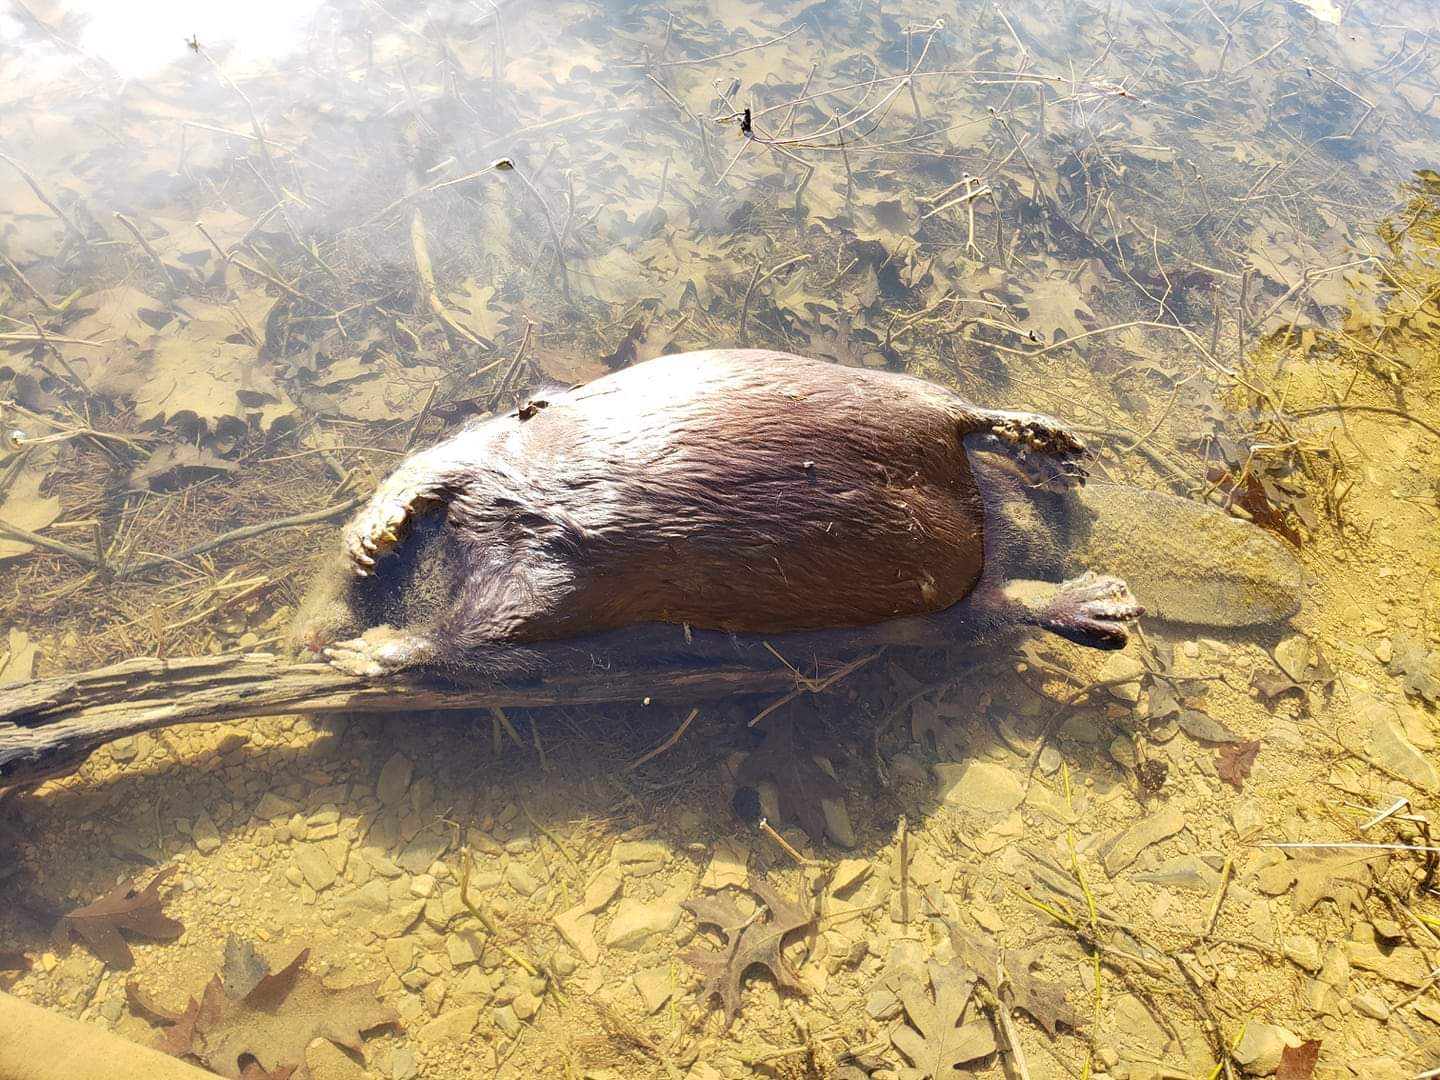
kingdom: Animalia
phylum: Chordata
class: Mammalia
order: Rodentia
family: Castoridae
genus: Castor
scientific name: Castor canadensis
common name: American beaver
